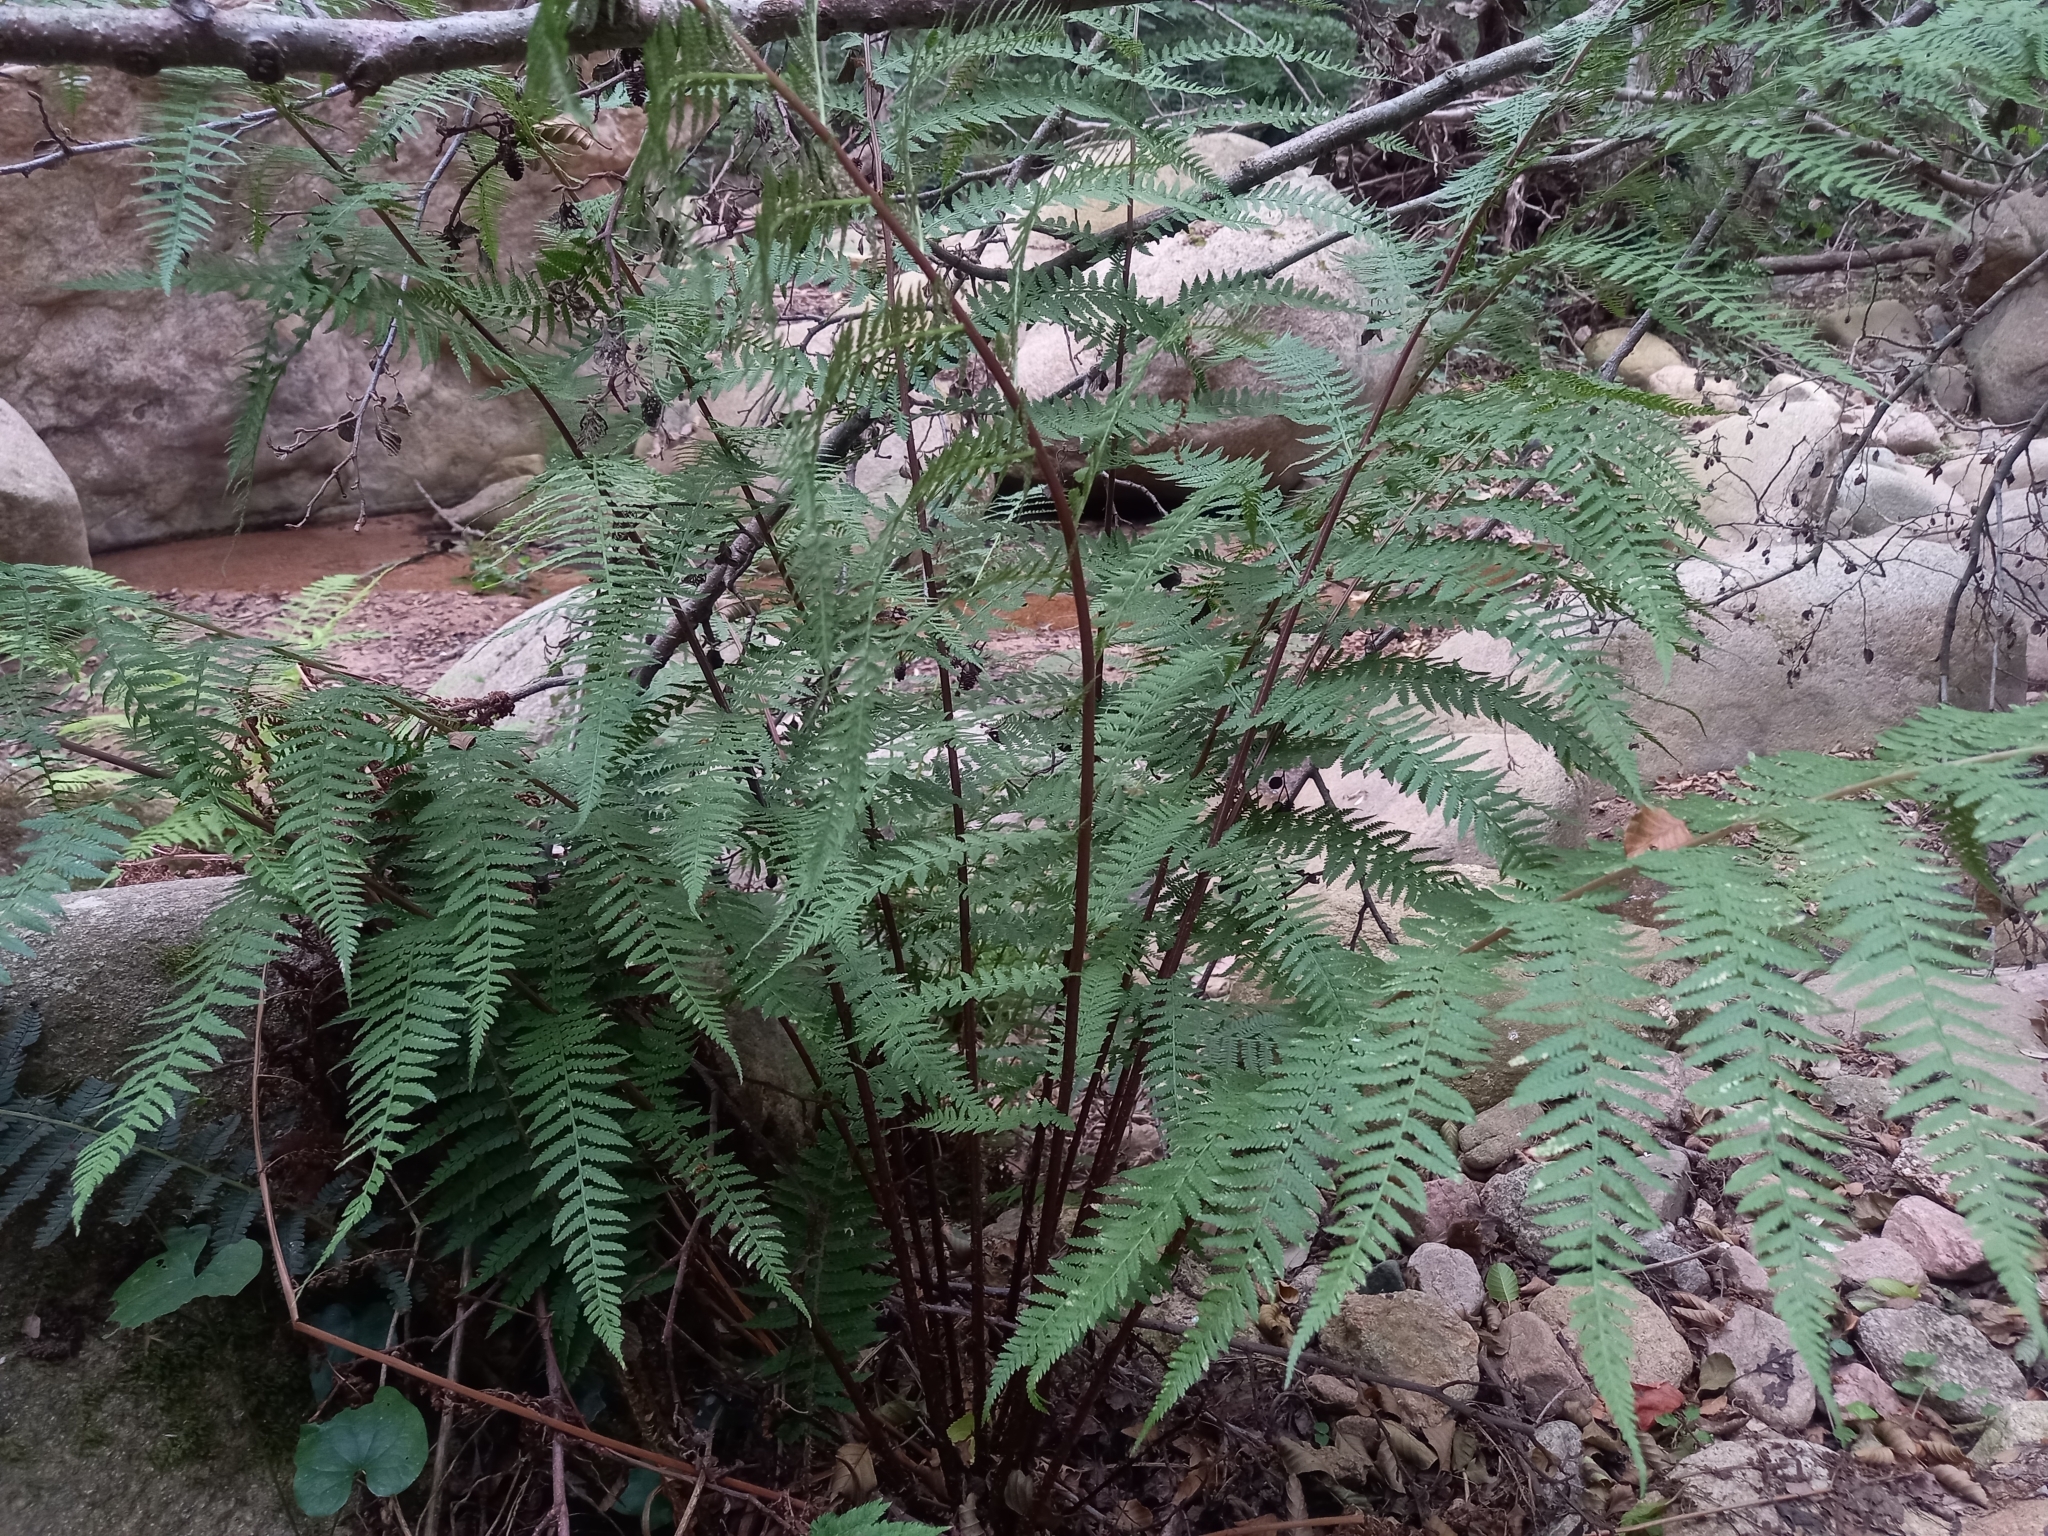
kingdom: Plantae
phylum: Tracheophyta
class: Polypodiopsida
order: Polypodiales
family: Athyriaceae
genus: Athyrium
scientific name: Athyrium filix-femina
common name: Lady fern
